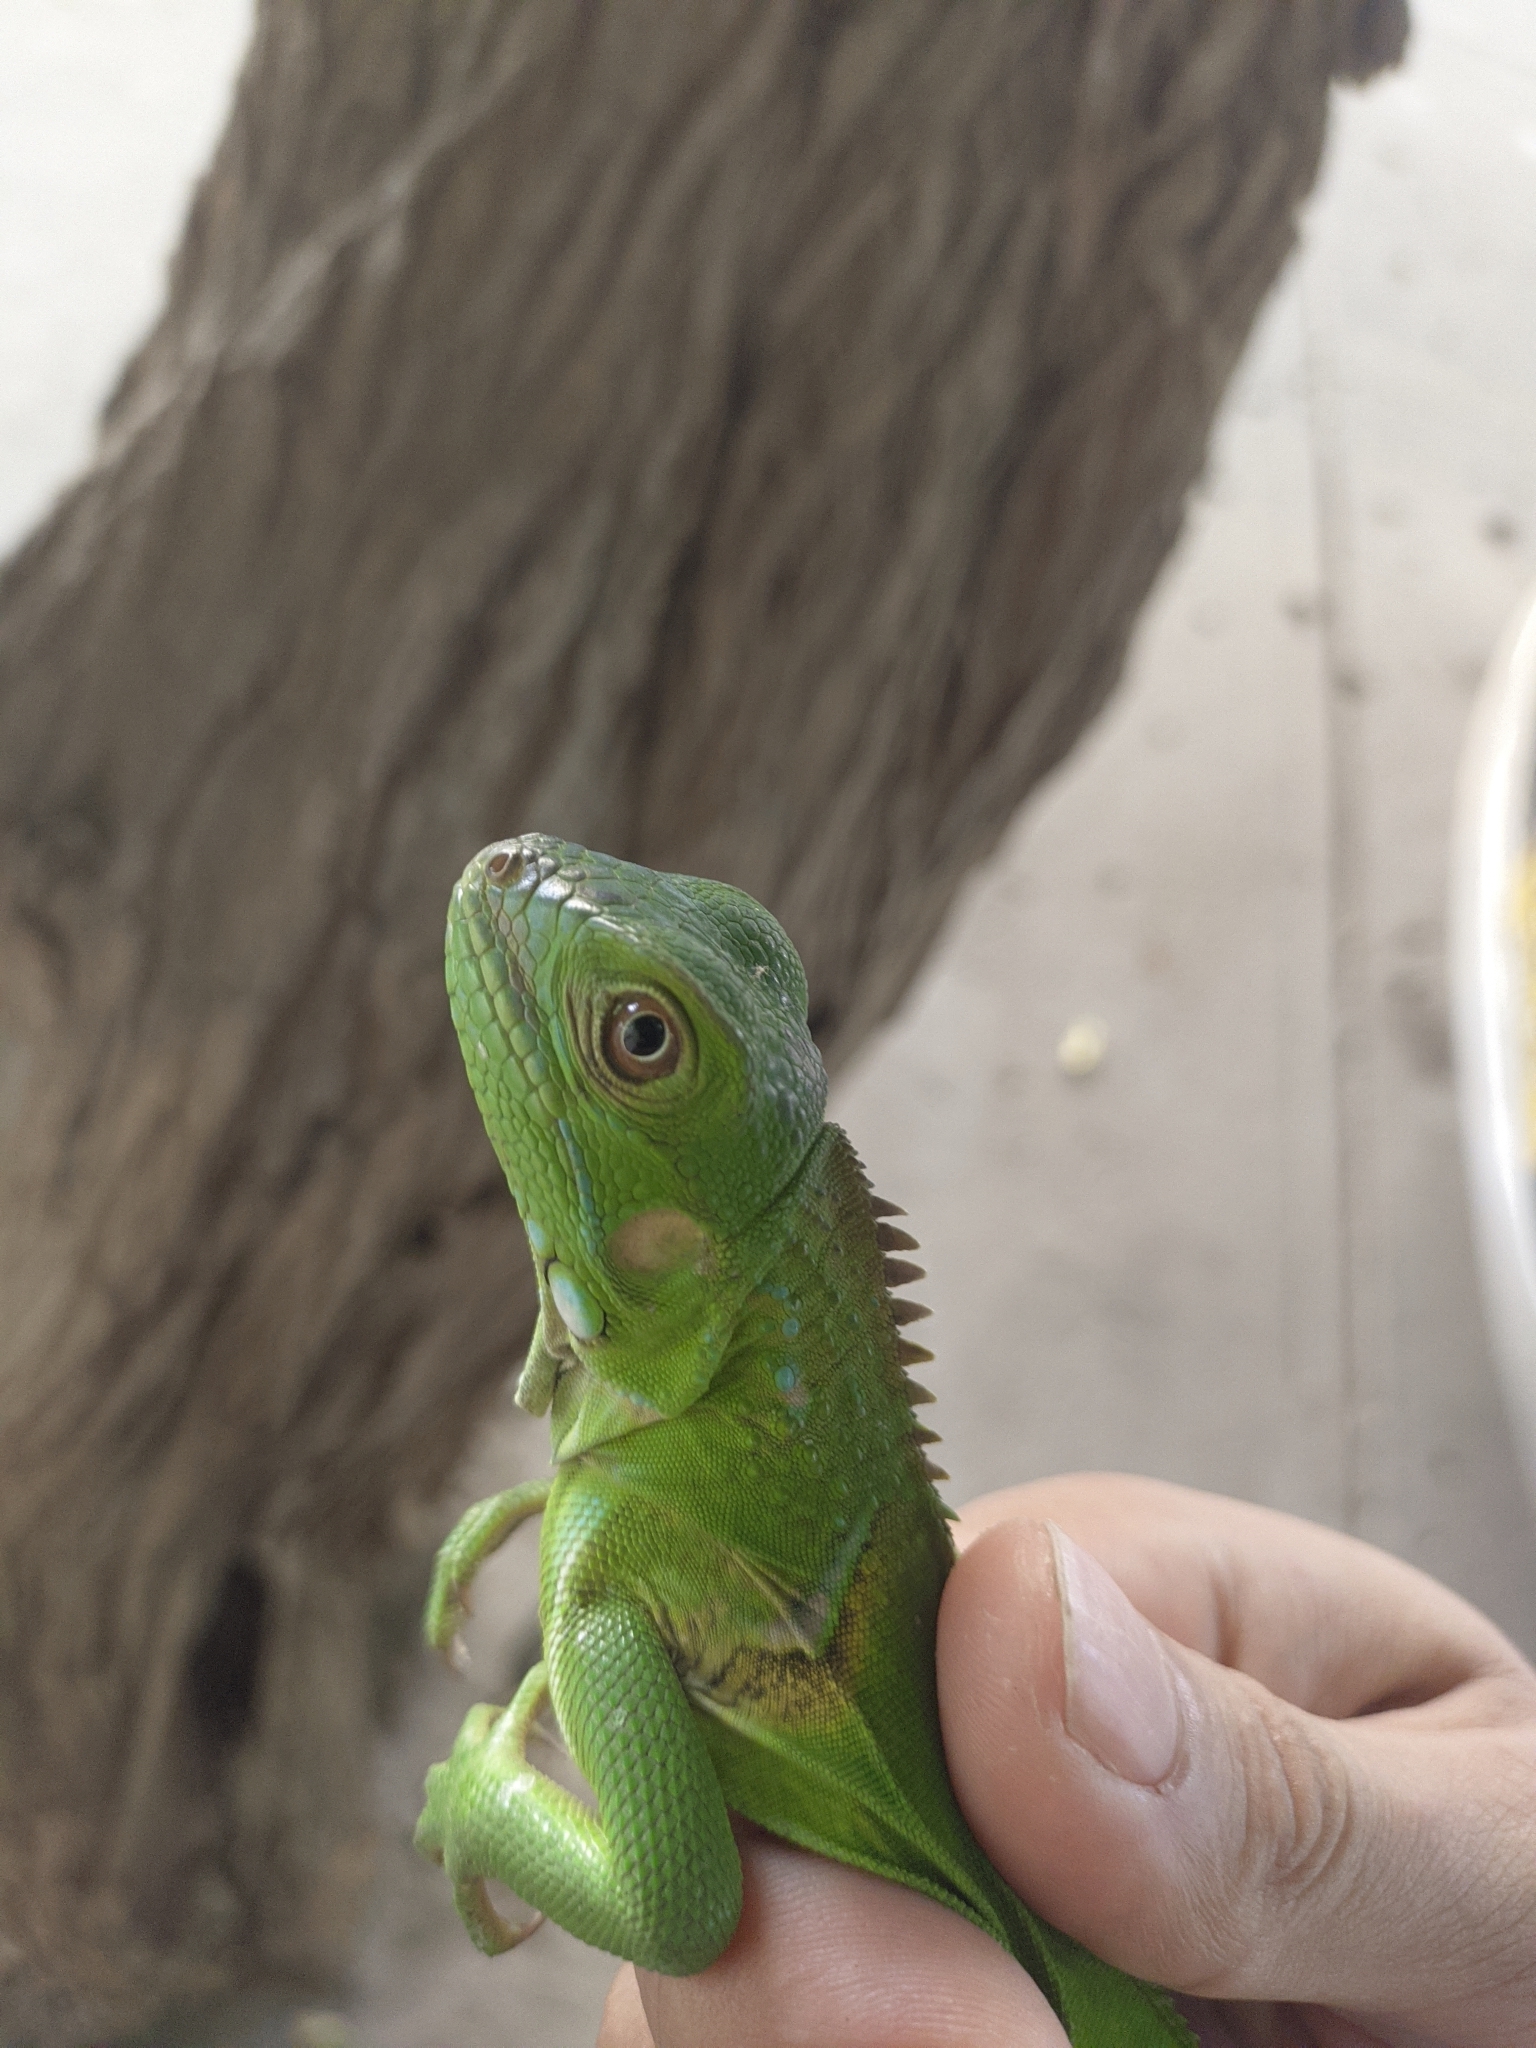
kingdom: Animalia
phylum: Chordata
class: Squamata
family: Iguanidae
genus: Iguana
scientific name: Iguana iguana
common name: Green iguana
